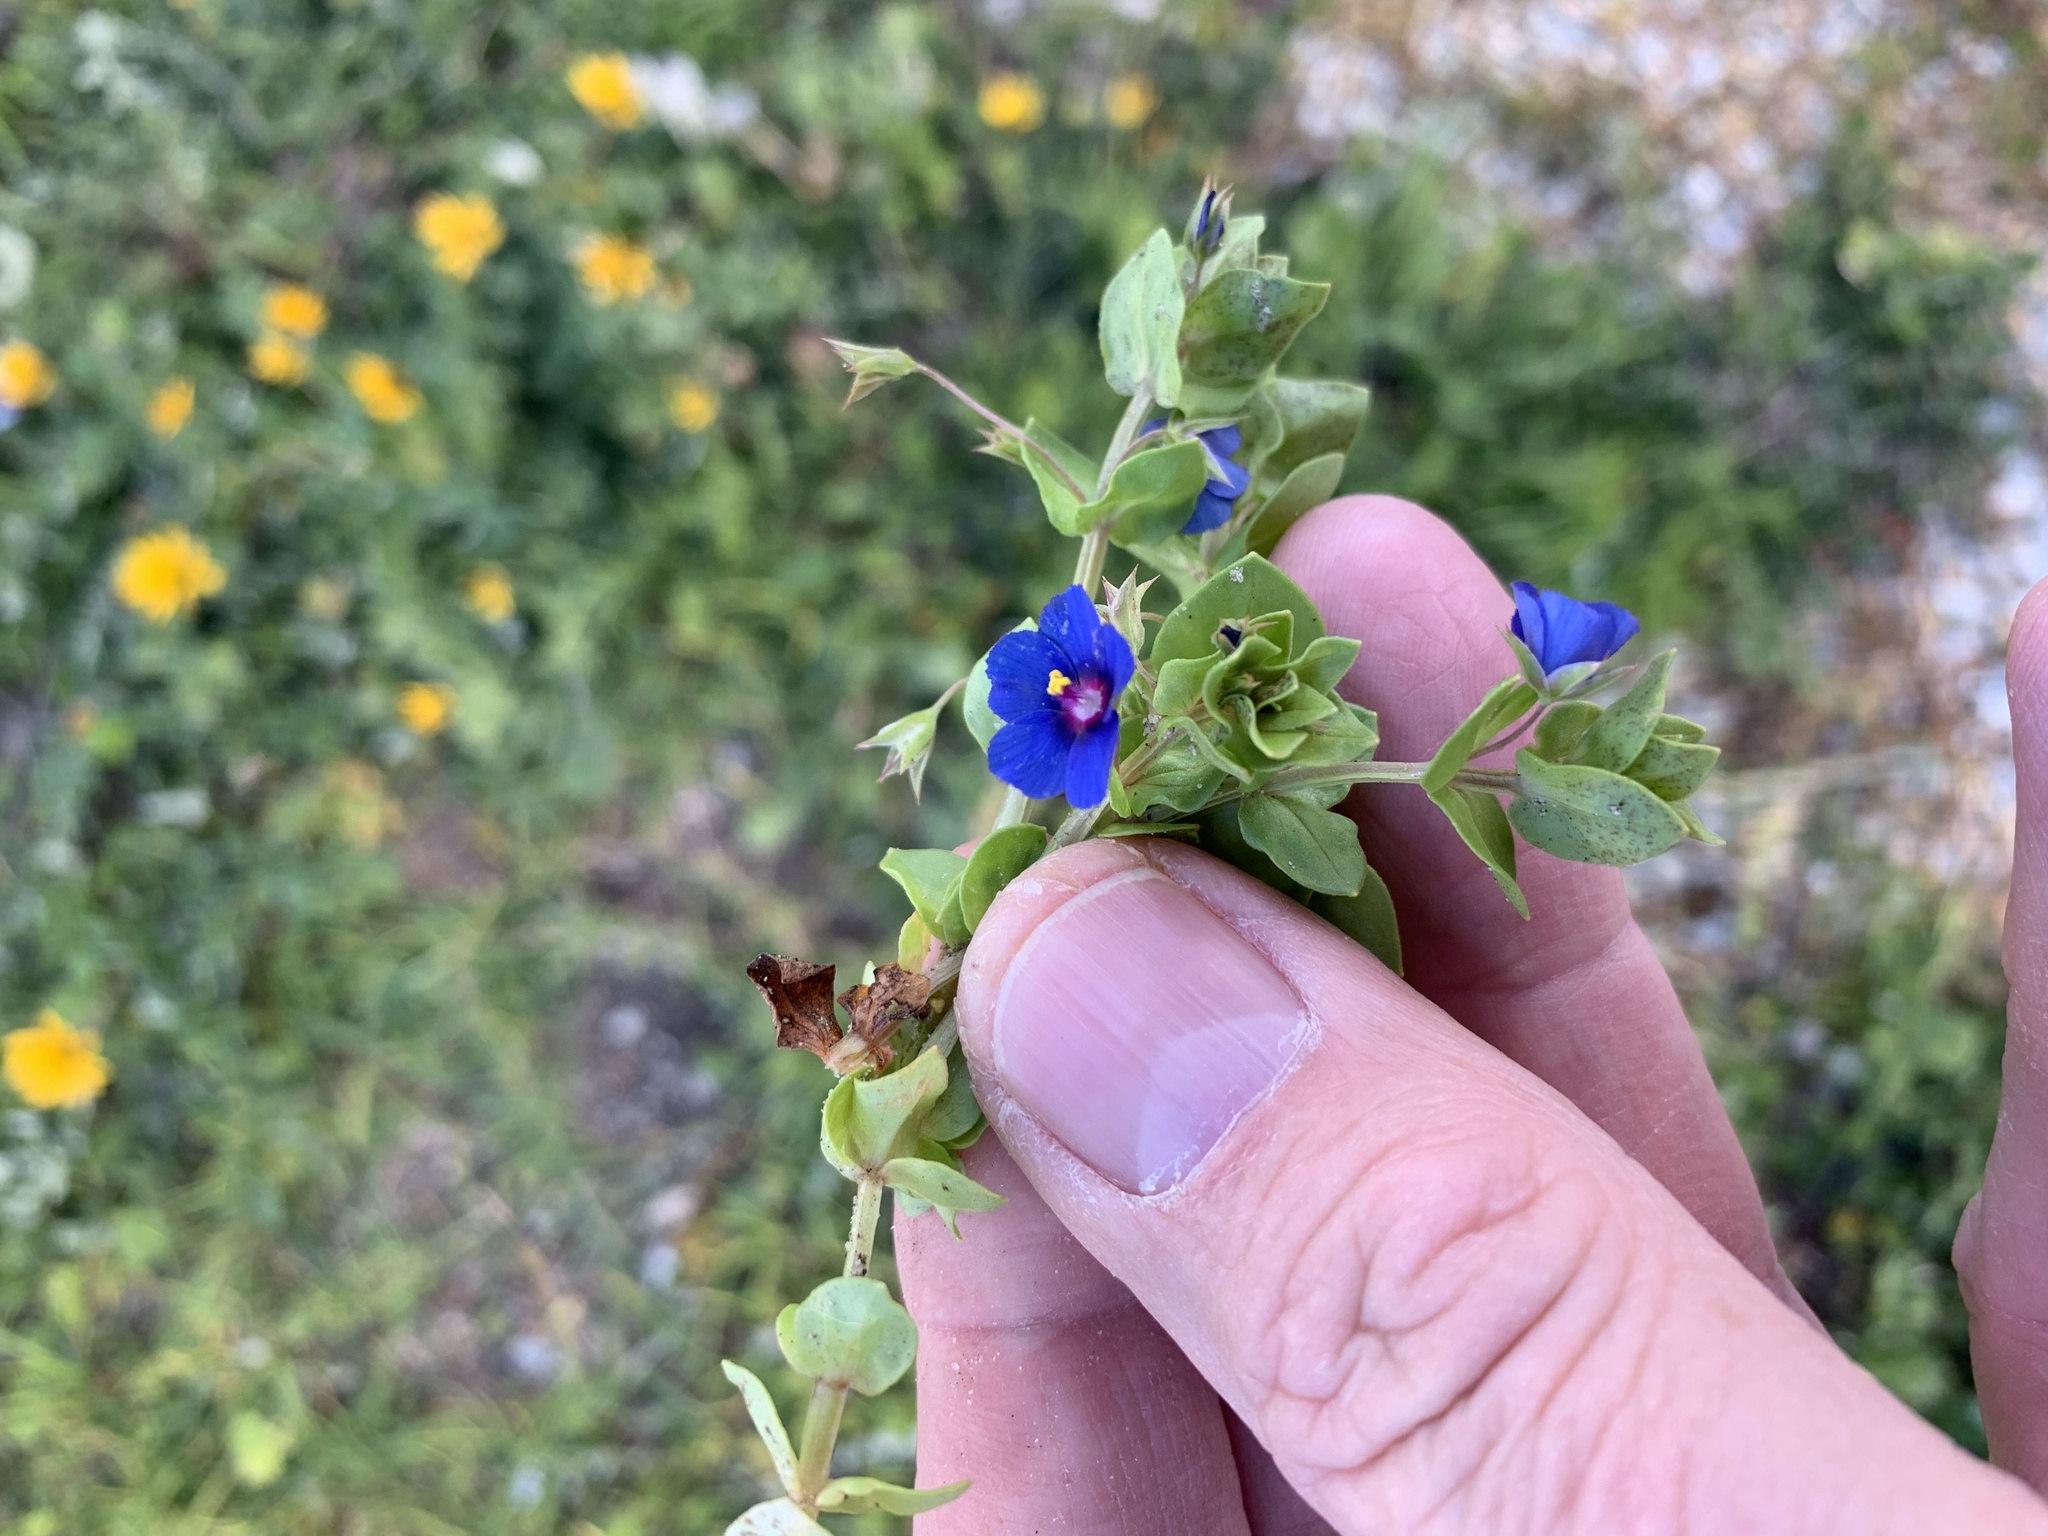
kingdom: Plantae
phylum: Tracheophyta
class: Magnoliopsida
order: Ericales
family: Primulaceae
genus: Lysimachia
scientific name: Lysimachia loeflingii
